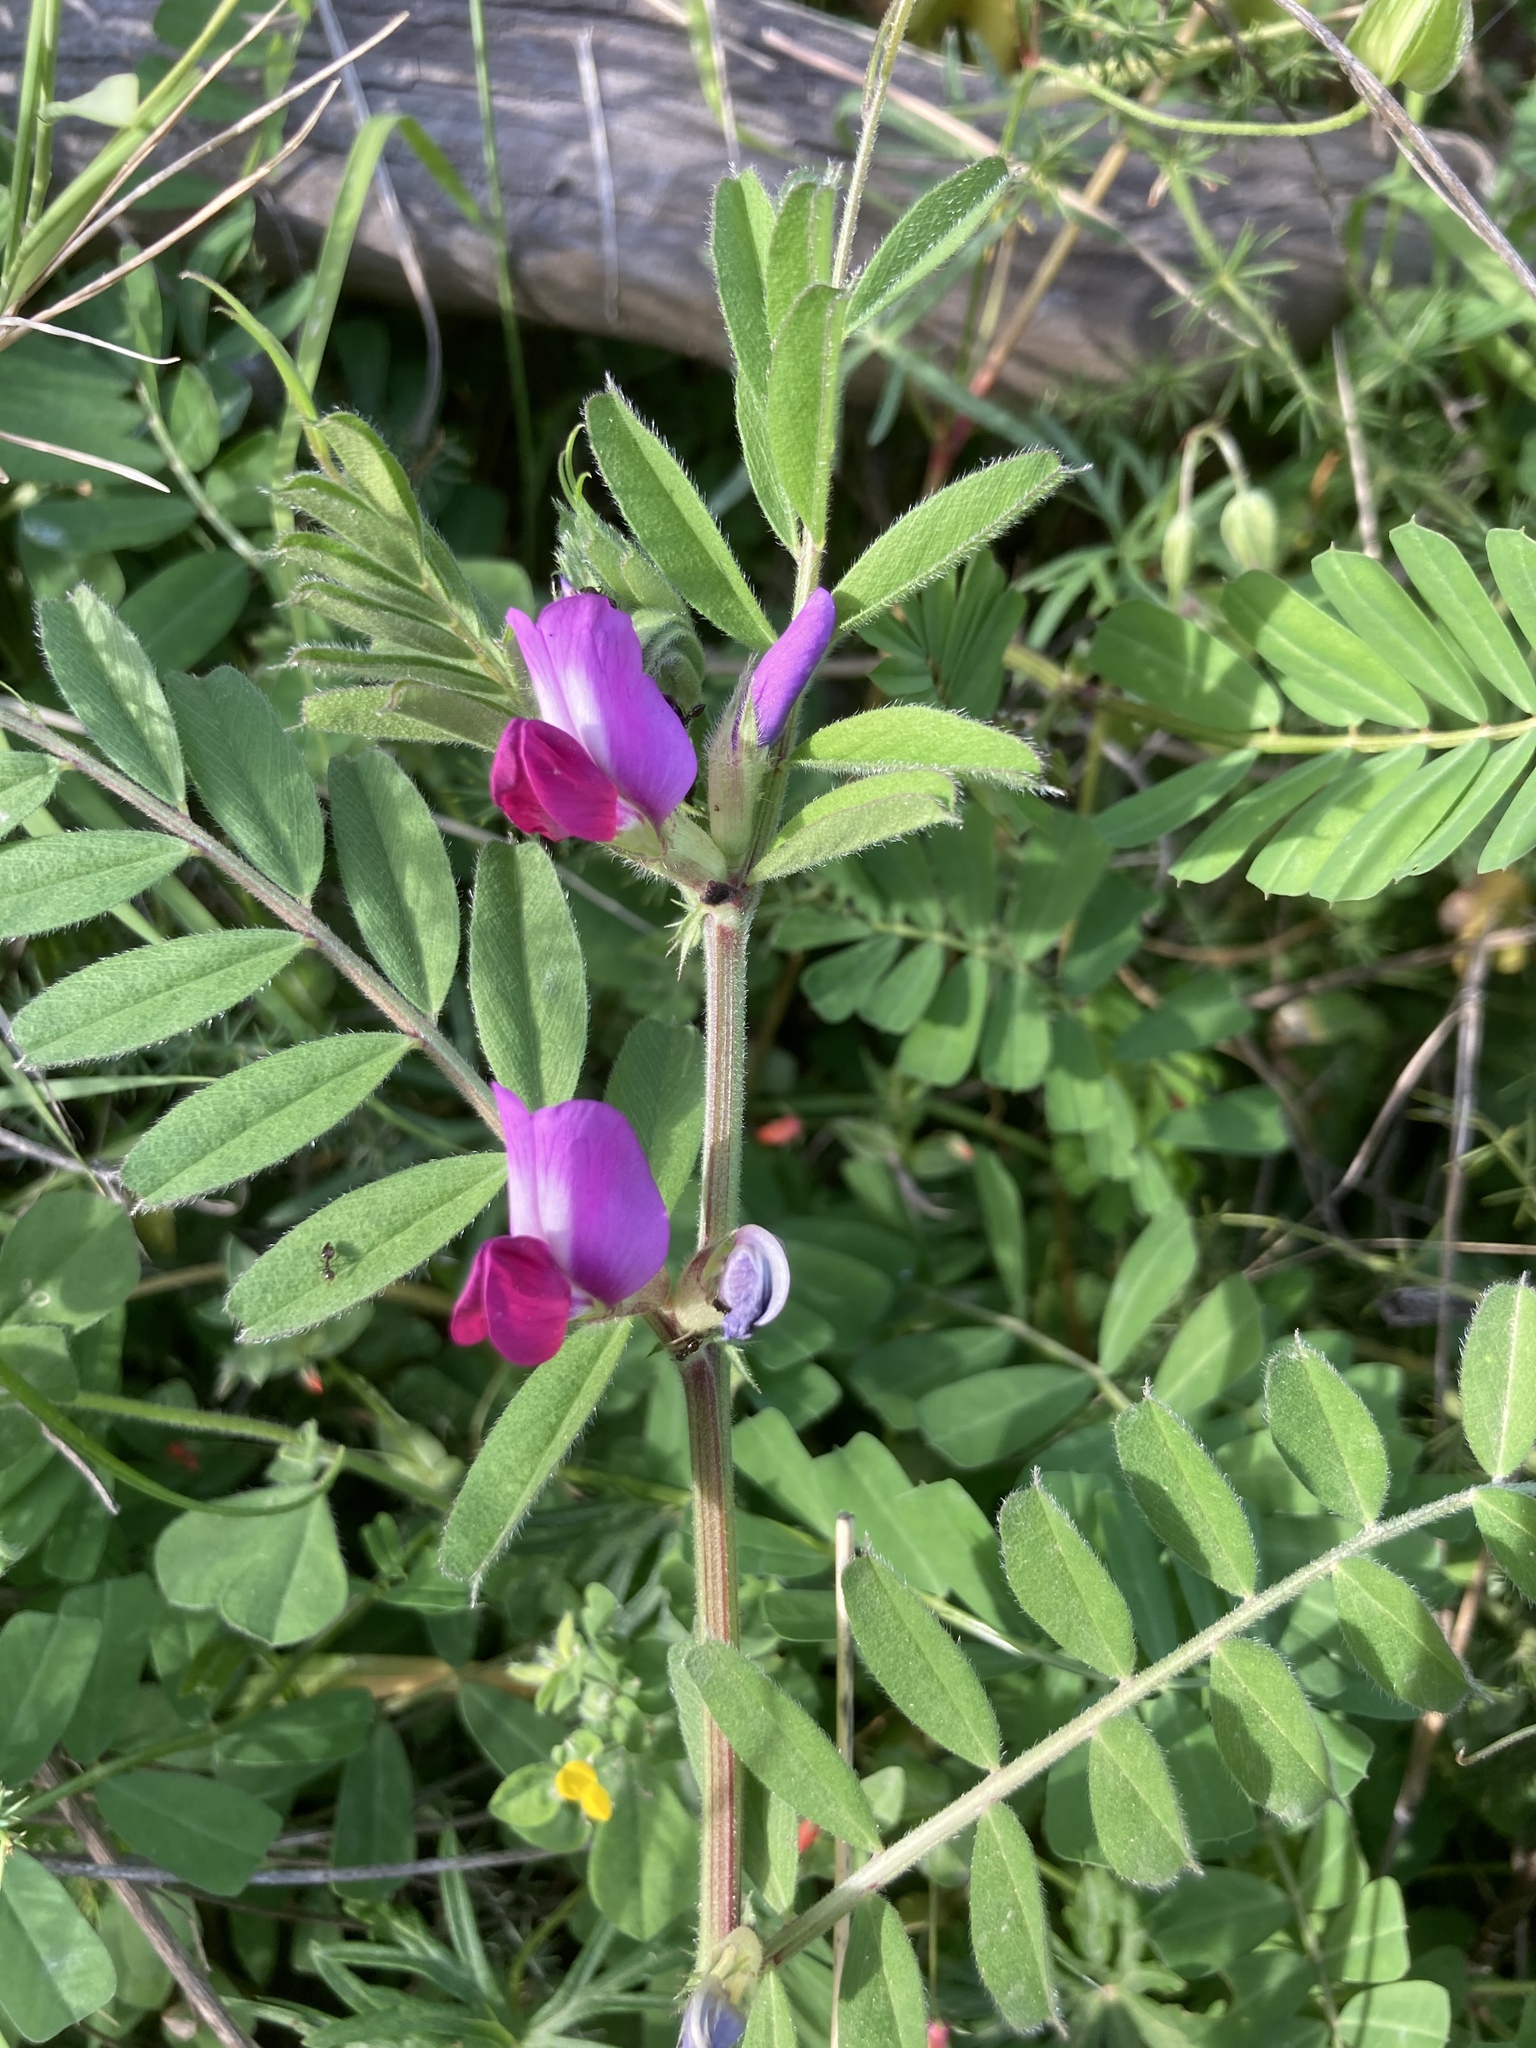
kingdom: Plantae
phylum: Tracheophyta
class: Magnoliopsida
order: Fabales
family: Fabaceae
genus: Vicia
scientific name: Vicia sativa
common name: Garden vetch
